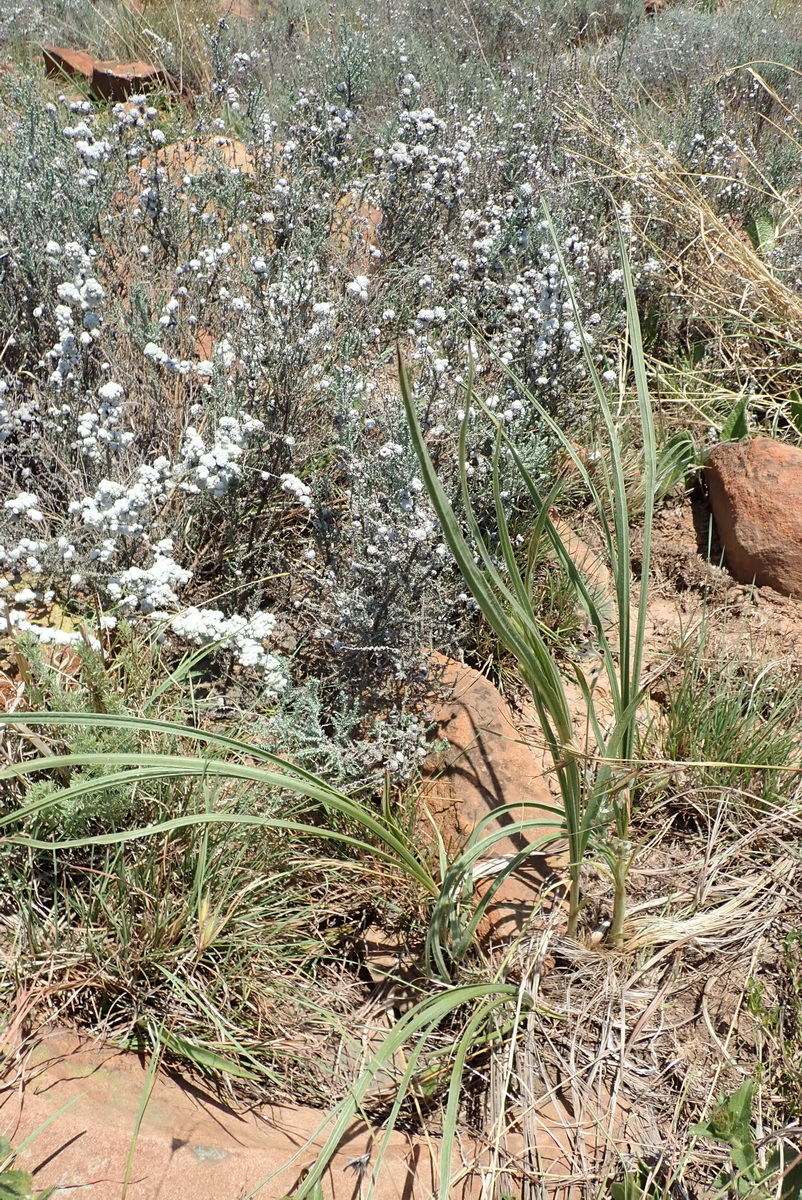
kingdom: Plantae
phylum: Tracheophyta
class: Liliopsida
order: Asparagales
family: Hypoxidaceae
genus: Hypoxis
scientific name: Hypoxis rigidula
